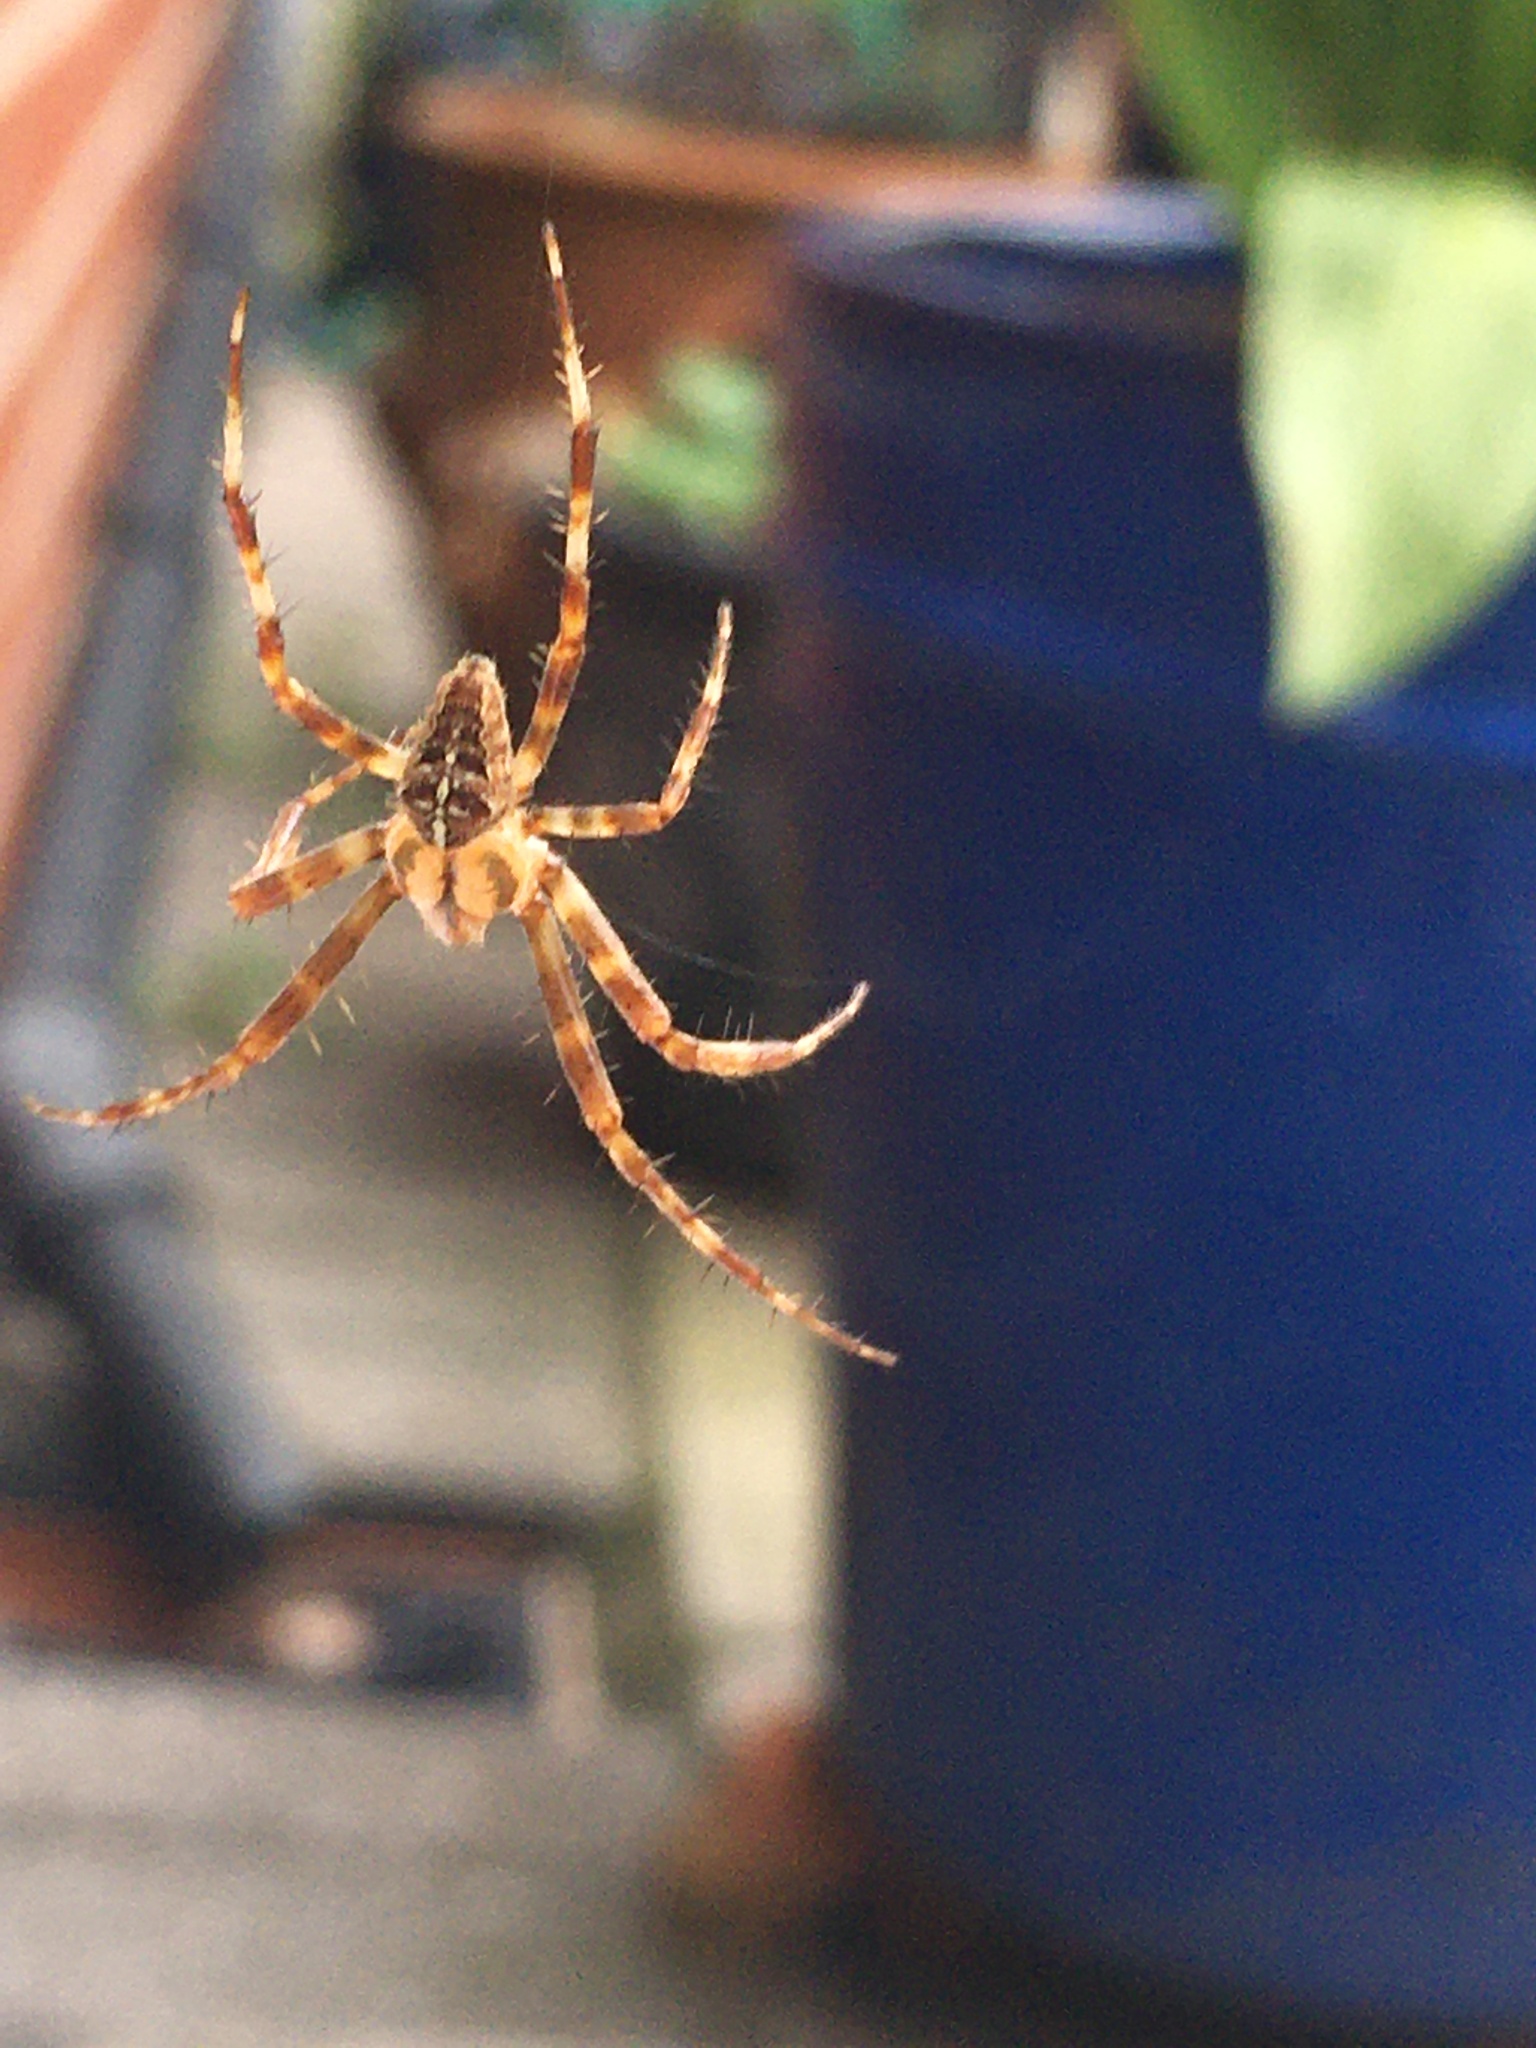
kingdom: Animalia
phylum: Arthropoda
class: Arachnida
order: Araneae
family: Araneidae
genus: Araneus
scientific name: Araneus diadematus
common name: Cross orbweaver
